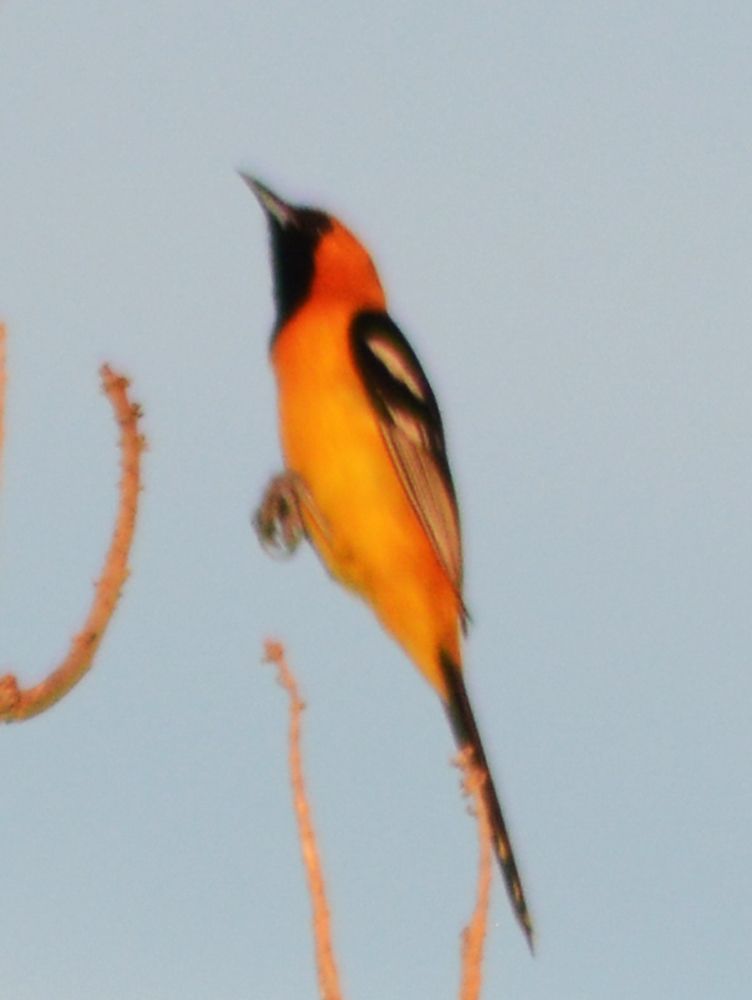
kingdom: Animalia
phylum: Chordata
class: Aves
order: Passeriformes
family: Icteridae
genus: Icterus
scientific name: Icterus cucullatus
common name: Hooded oriole
